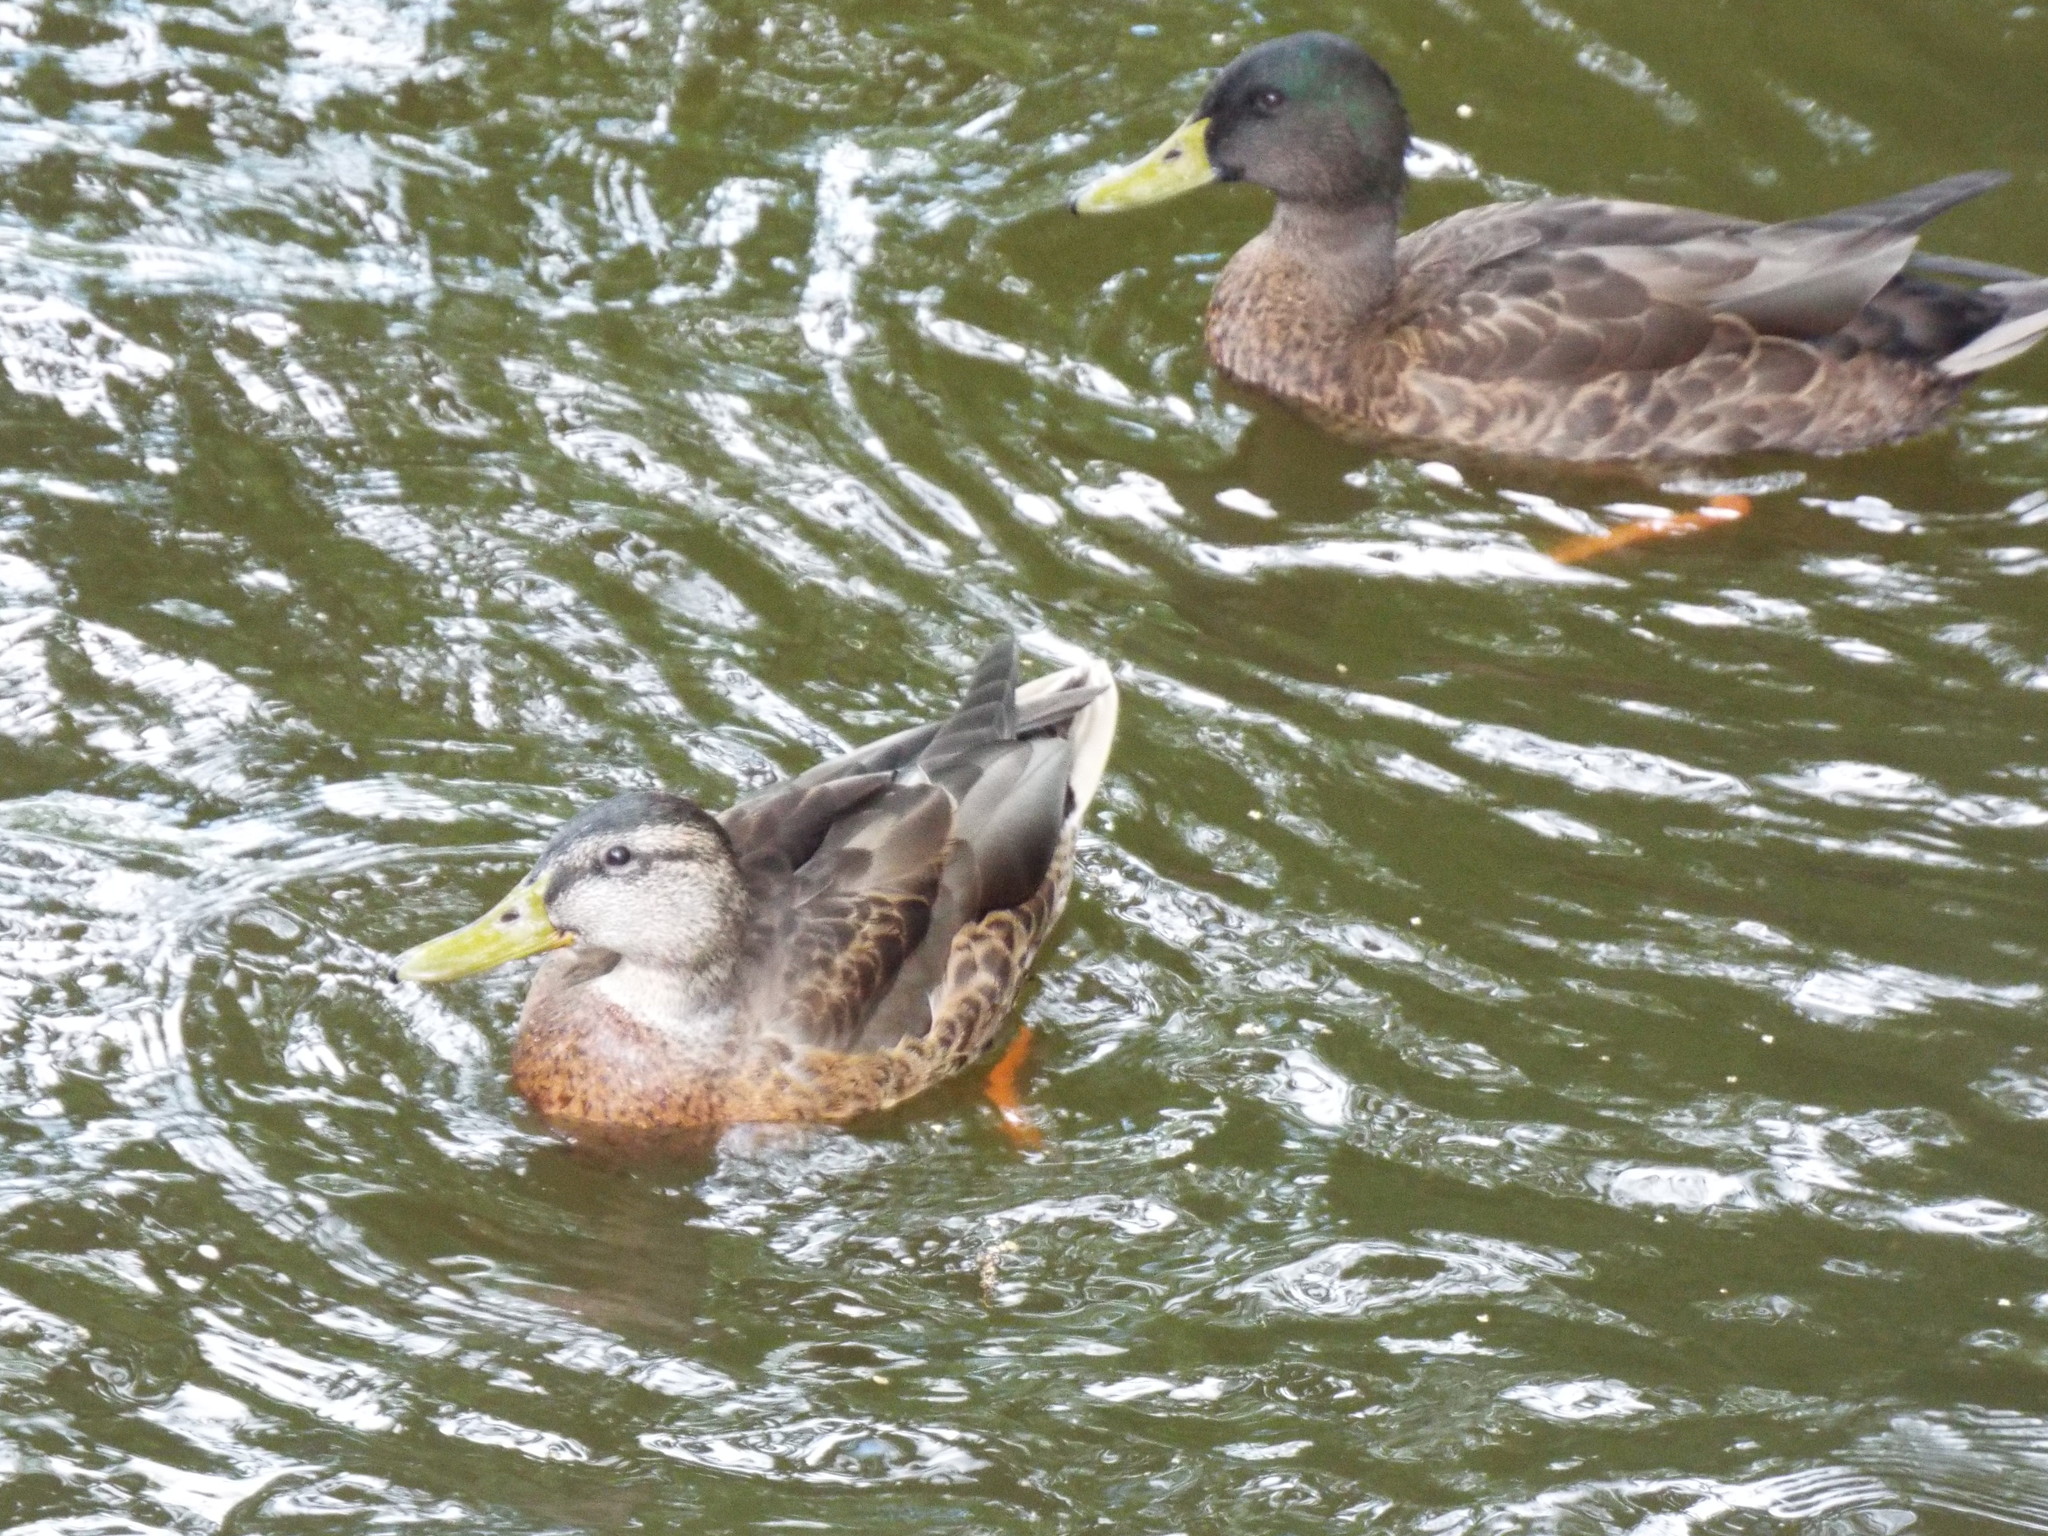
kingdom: Animalia
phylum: Chordata
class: Aves
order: Anseriformes
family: Anatidae
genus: Anas
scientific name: Anas platyrhynchos
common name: Mallard
